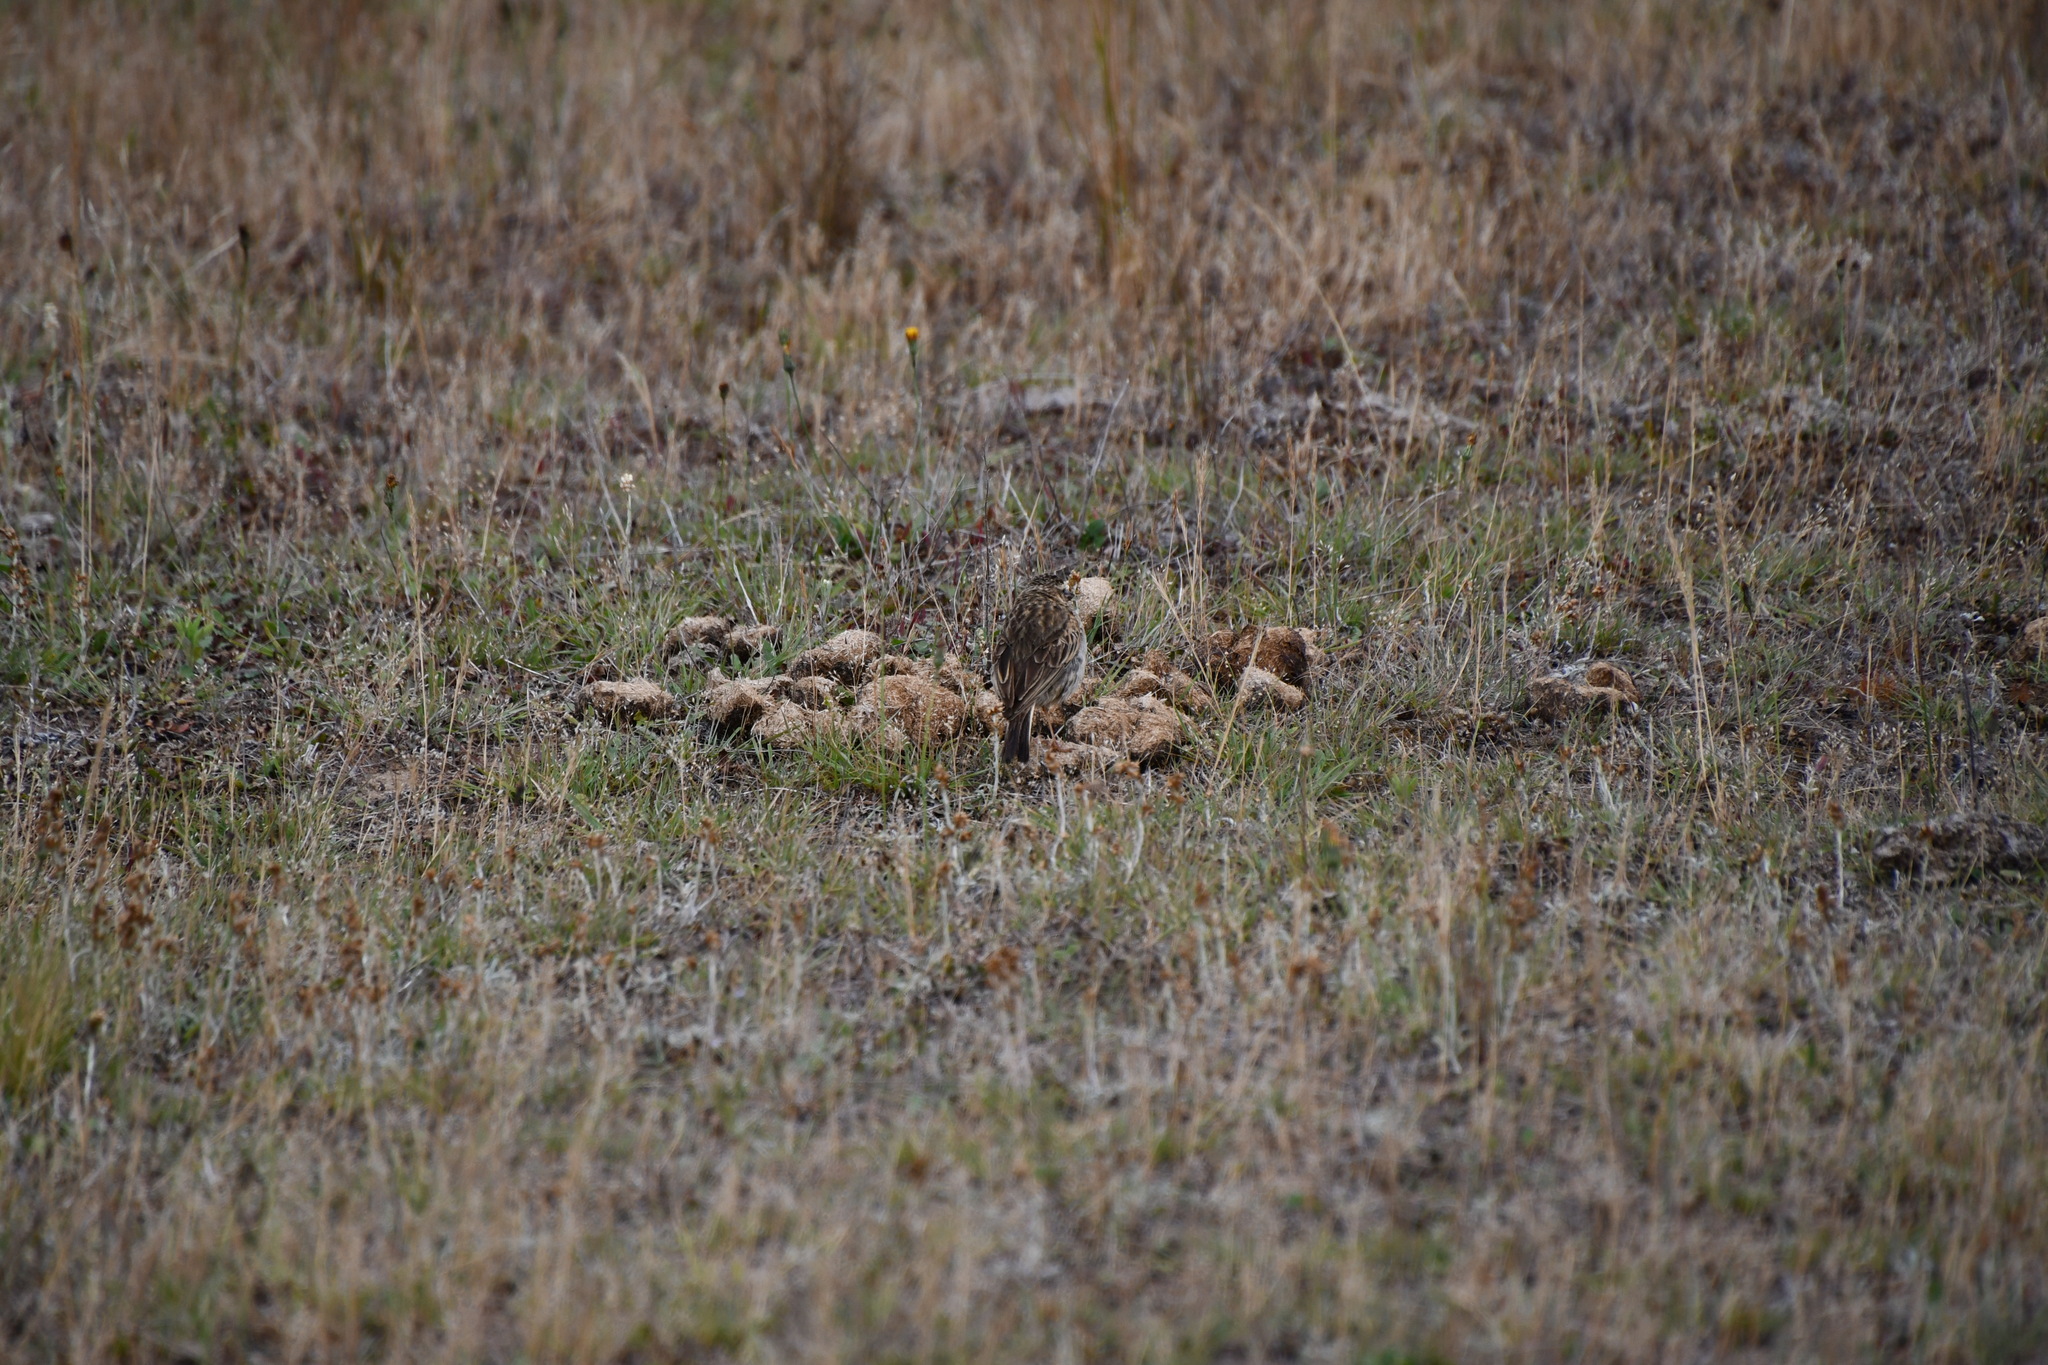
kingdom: Animalia
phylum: Chordata
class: Aves
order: Passeriformes
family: Motacillidae
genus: Anthus
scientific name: Anthus australis
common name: Australian pipit
